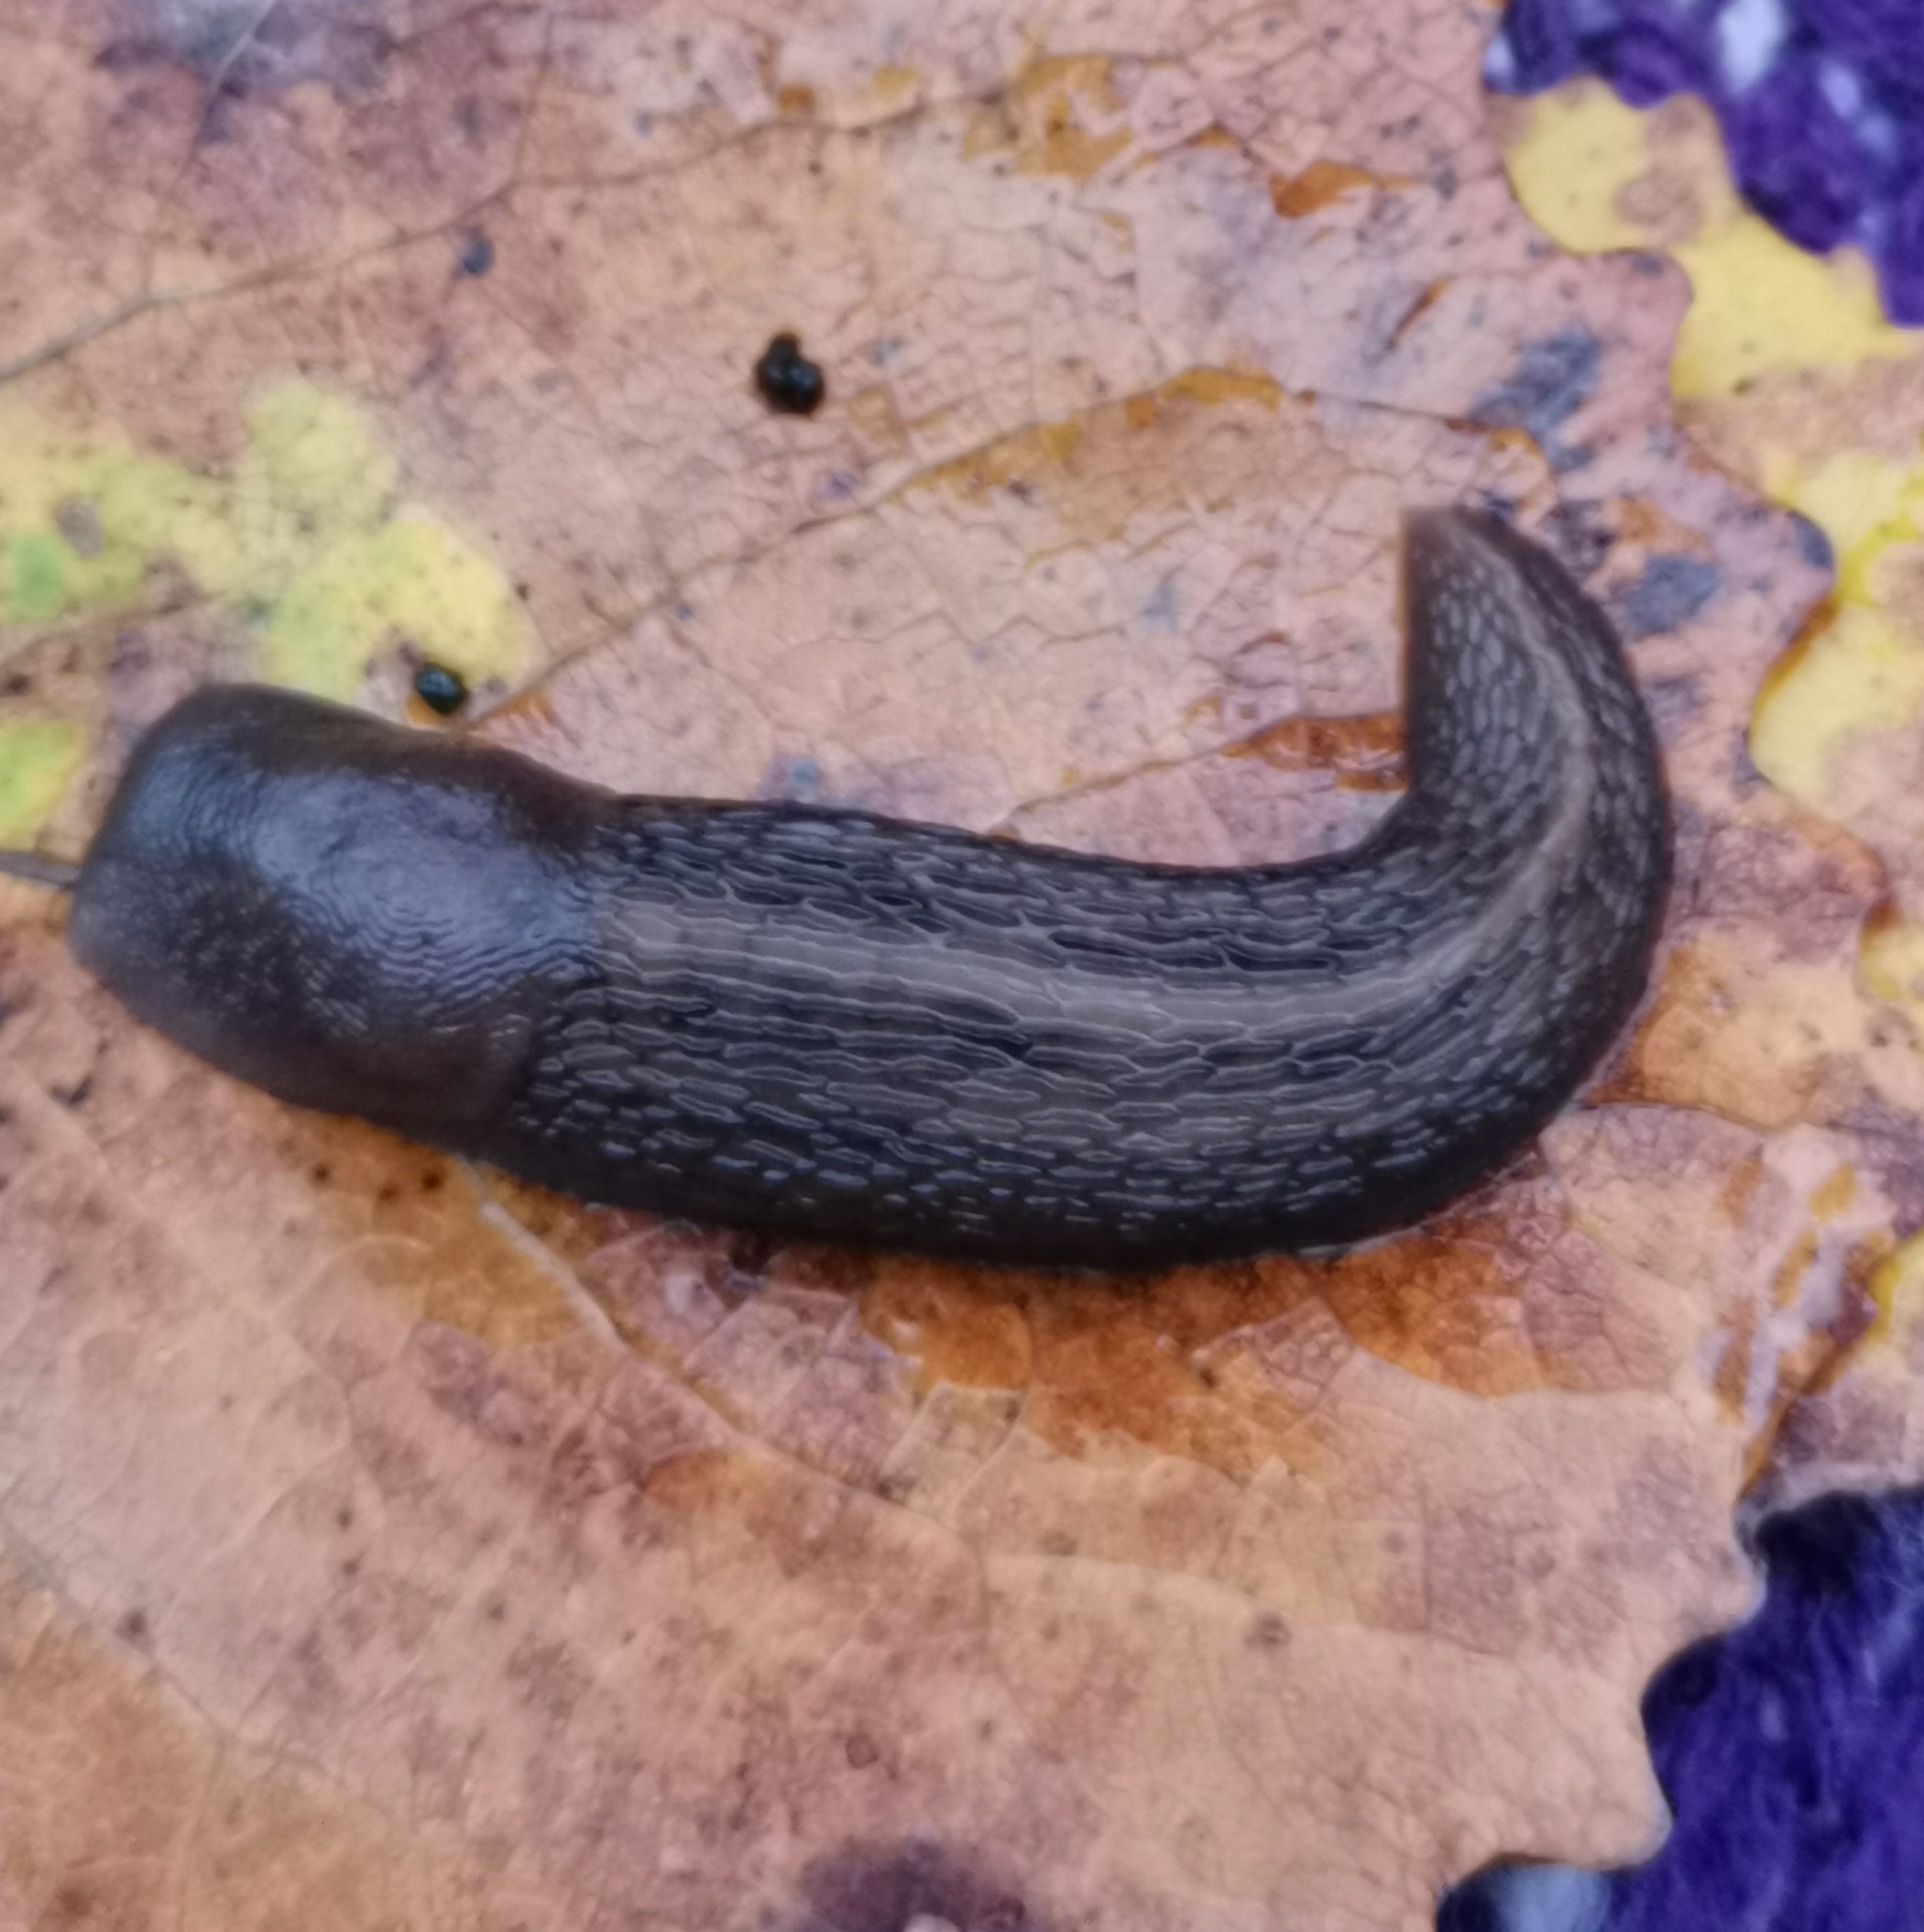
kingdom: Animalia
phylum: Mollusca
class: Gastropoda
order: Stylommatophora
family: Limacidae
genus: Limax
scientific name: Limax cinereoniger
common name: Ash-black slug
